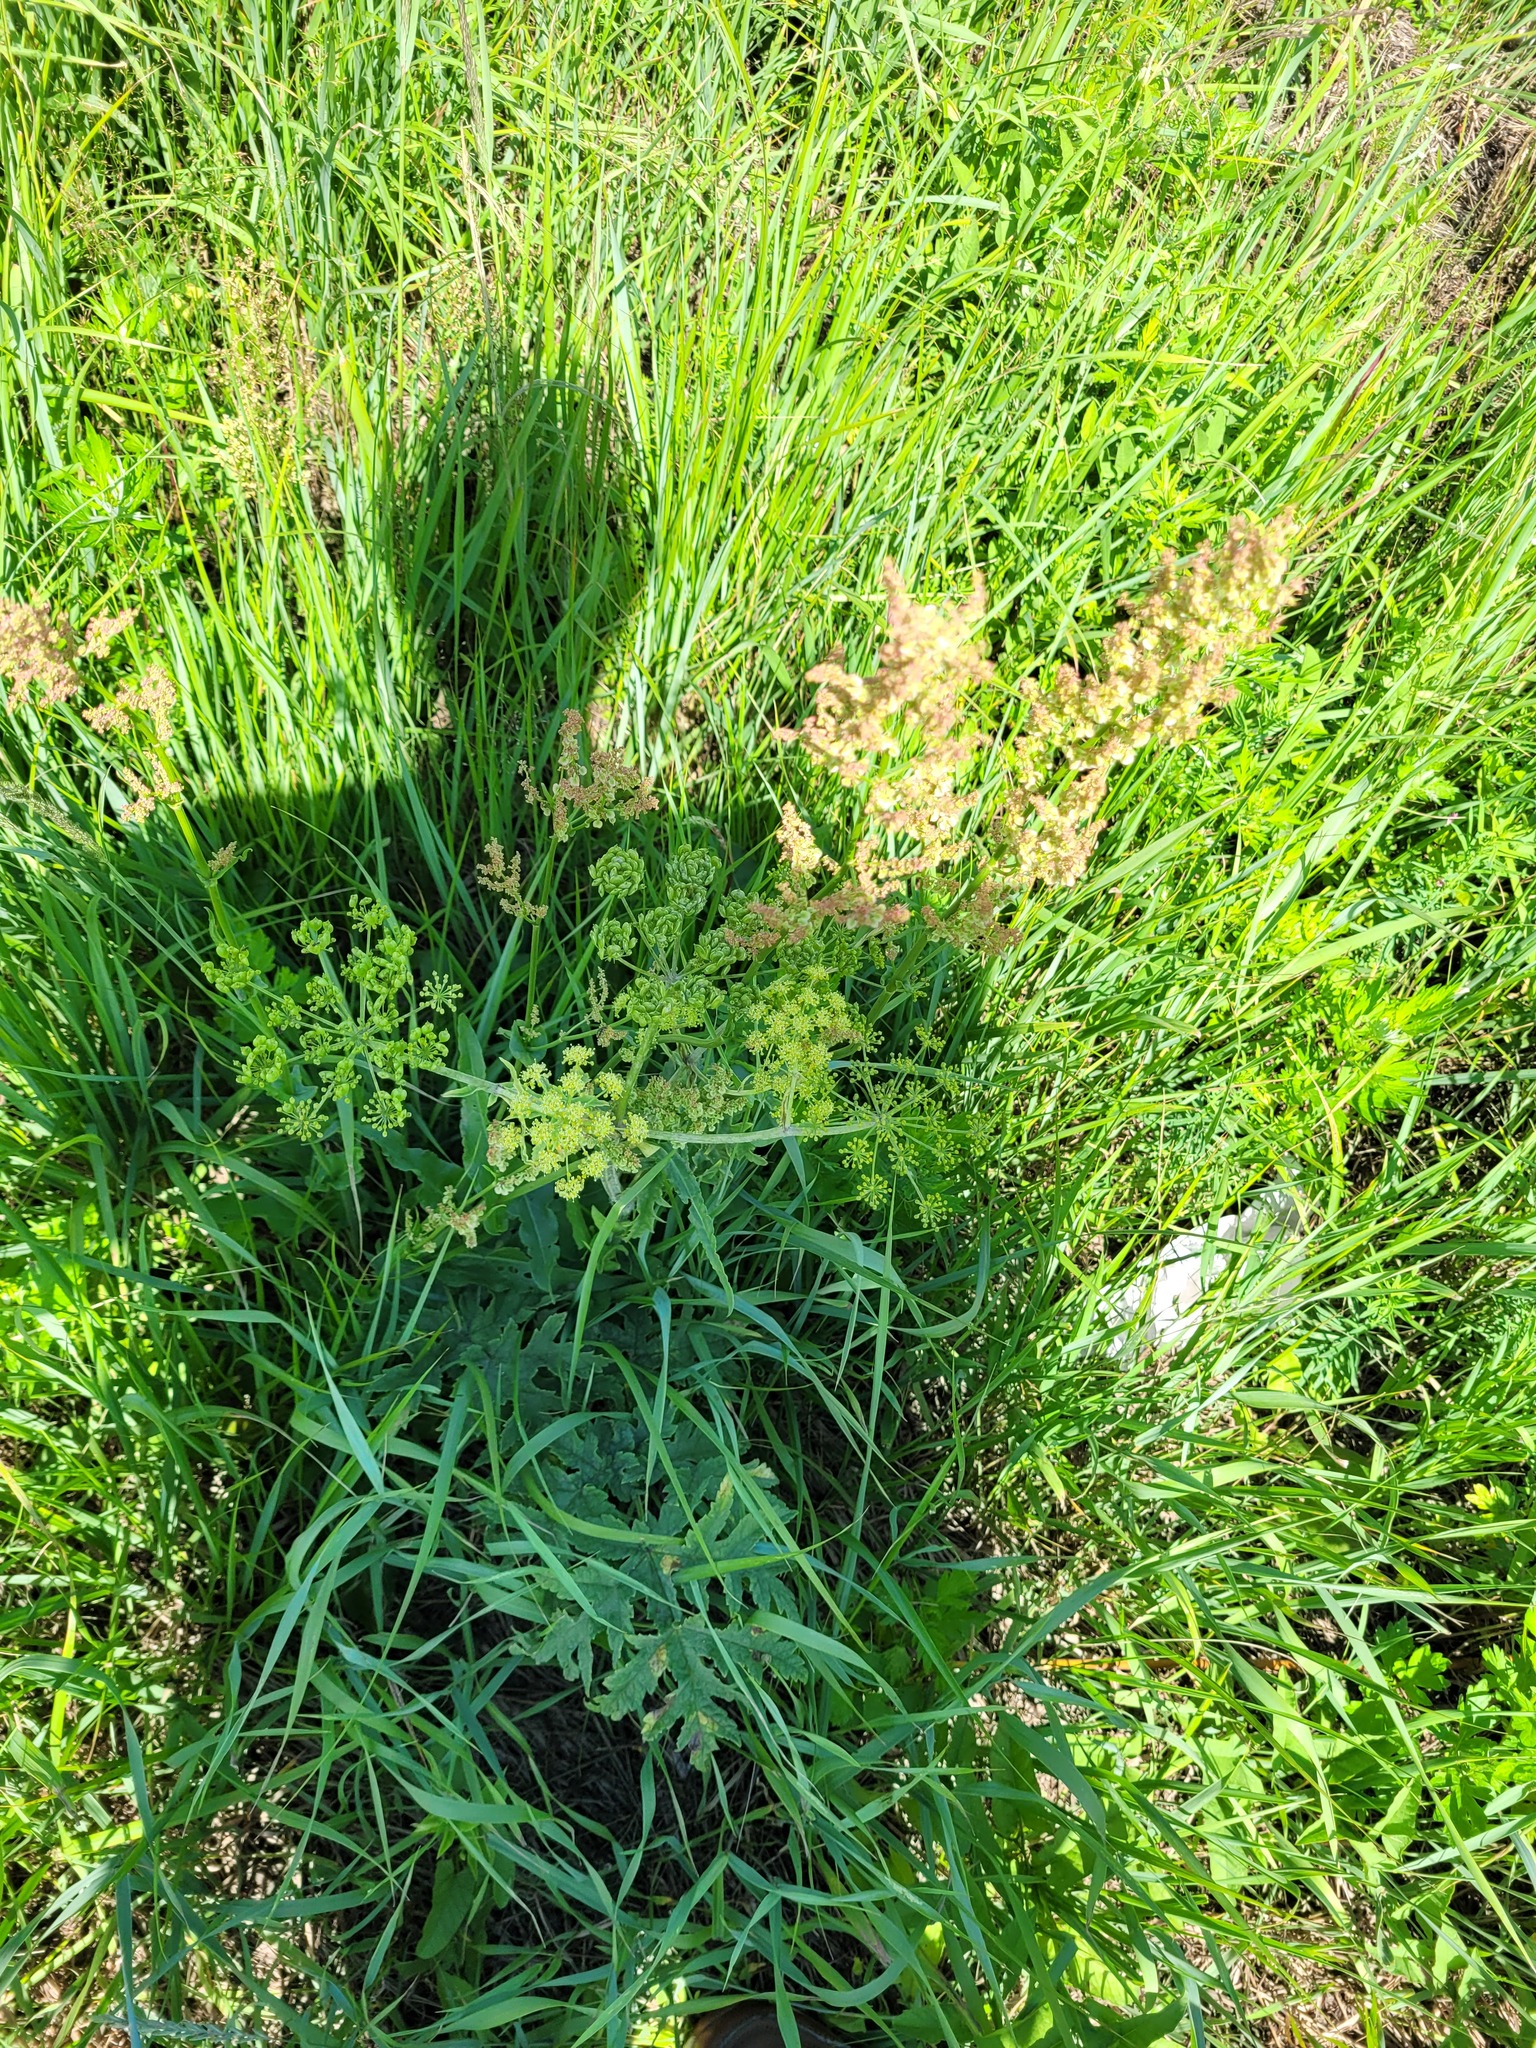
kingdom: Plantae
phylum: Tracheophyta
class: Magnoliopsida
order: Apiales
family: Apiaceae
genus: Heracleum
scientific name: Heracleum sphondylium
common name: Hogweed
